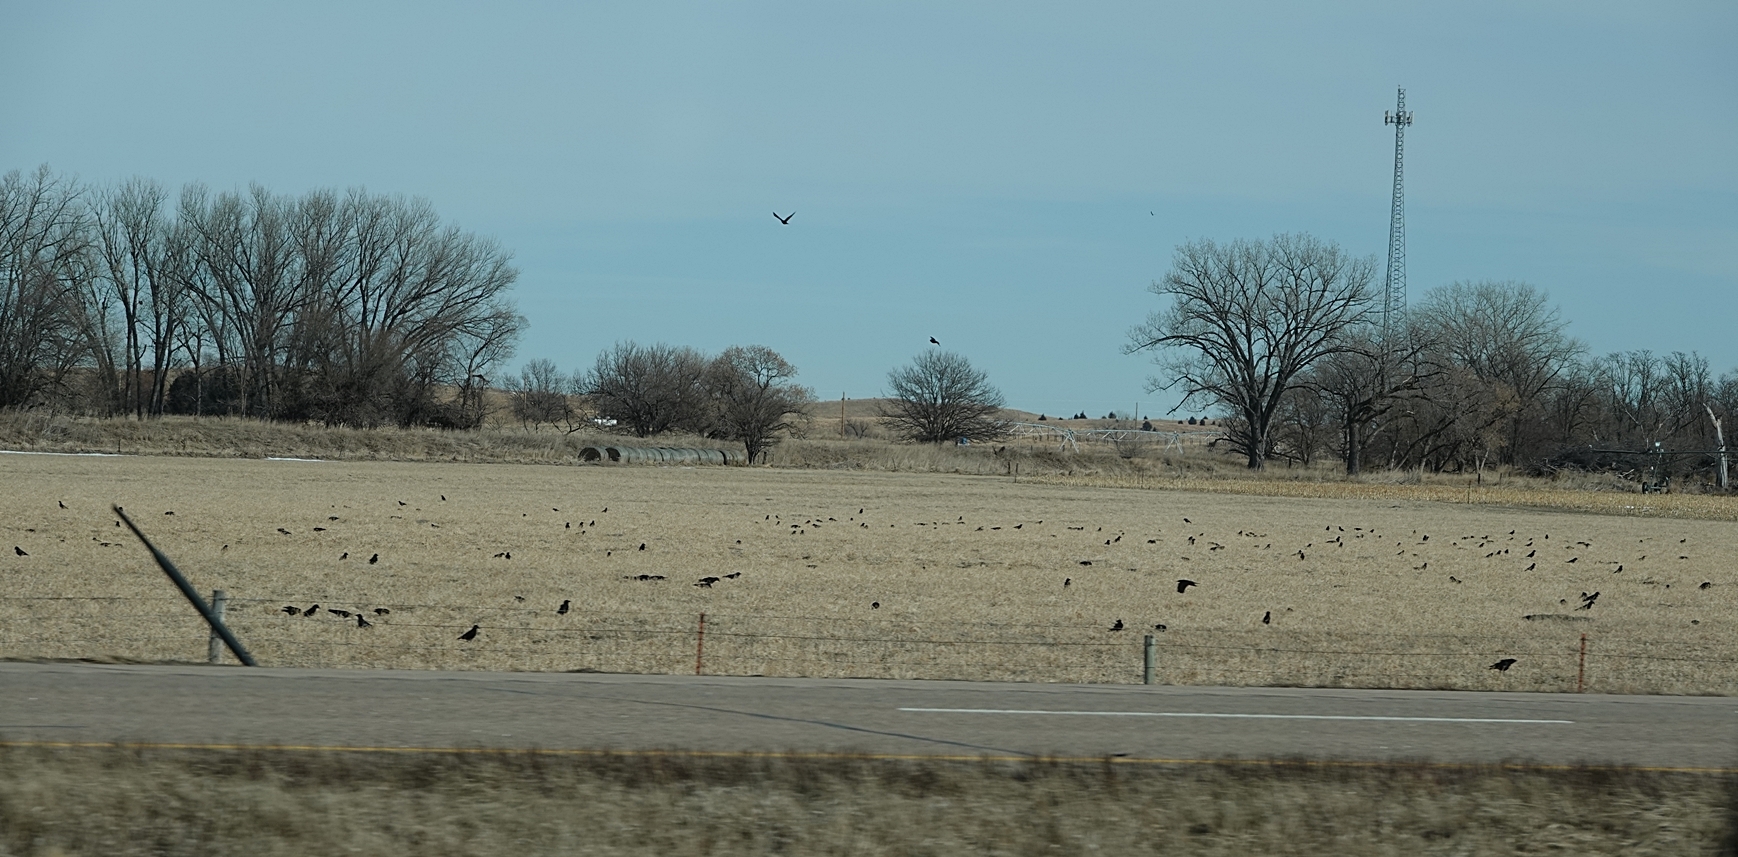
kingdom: Animalia
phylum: Chordata
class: Aves
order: Passeriformes
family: Corvidae
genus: Corvus
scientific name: Corvus brachyrhynchos
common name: American crow
